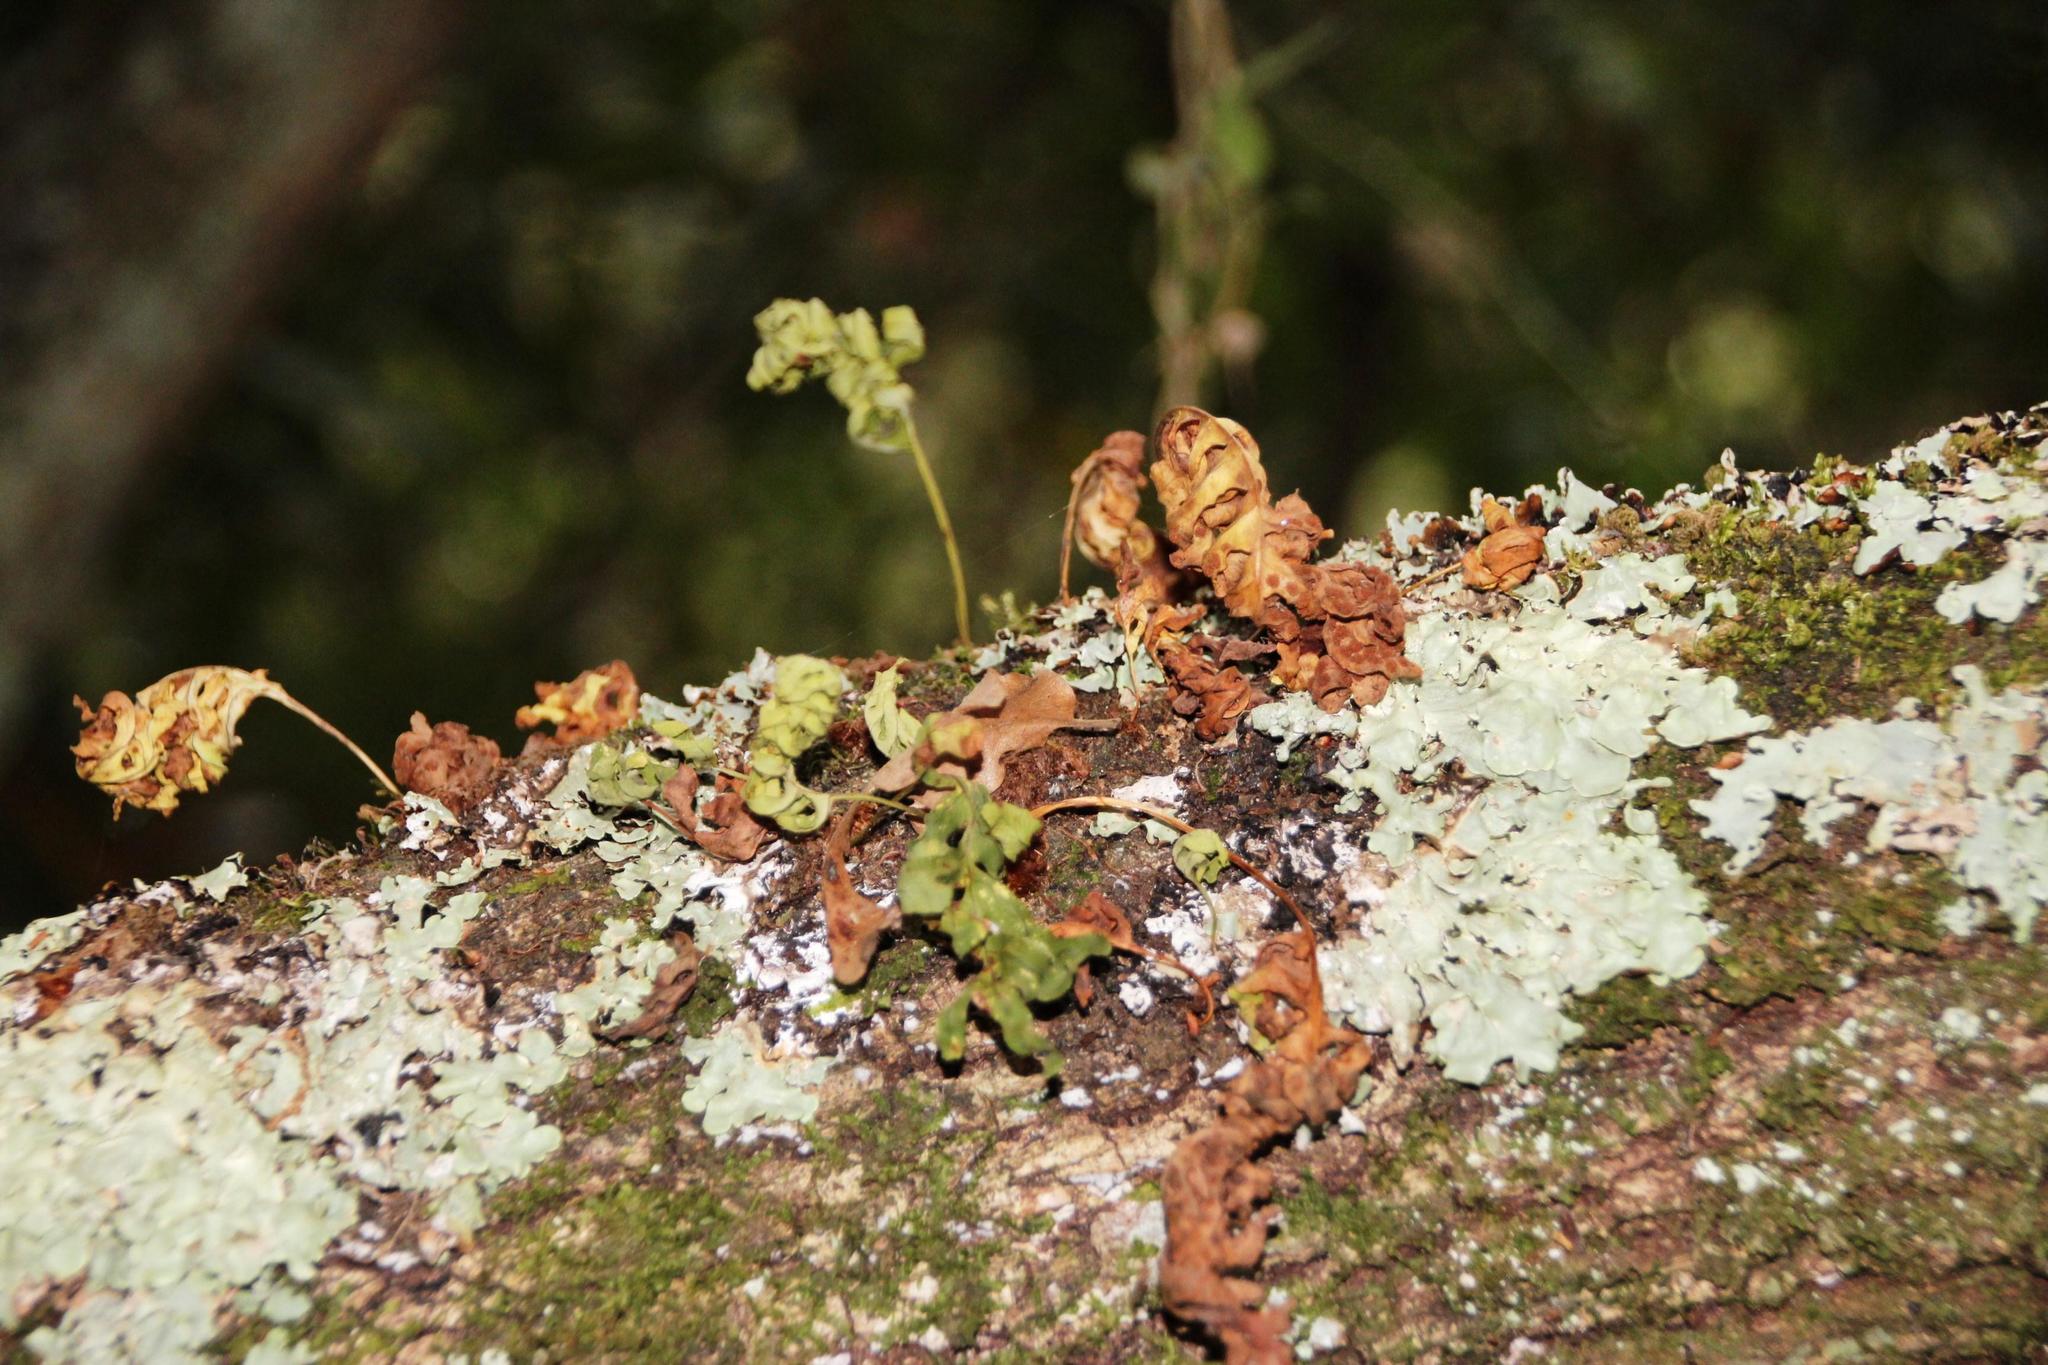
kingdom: Plantae
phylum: Tracheophyta
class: Polypodiopsida
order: Polypodiales
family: Polypodiaceae
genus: Polypodium
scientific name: Polypodium cambricum
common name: Southern polypody
